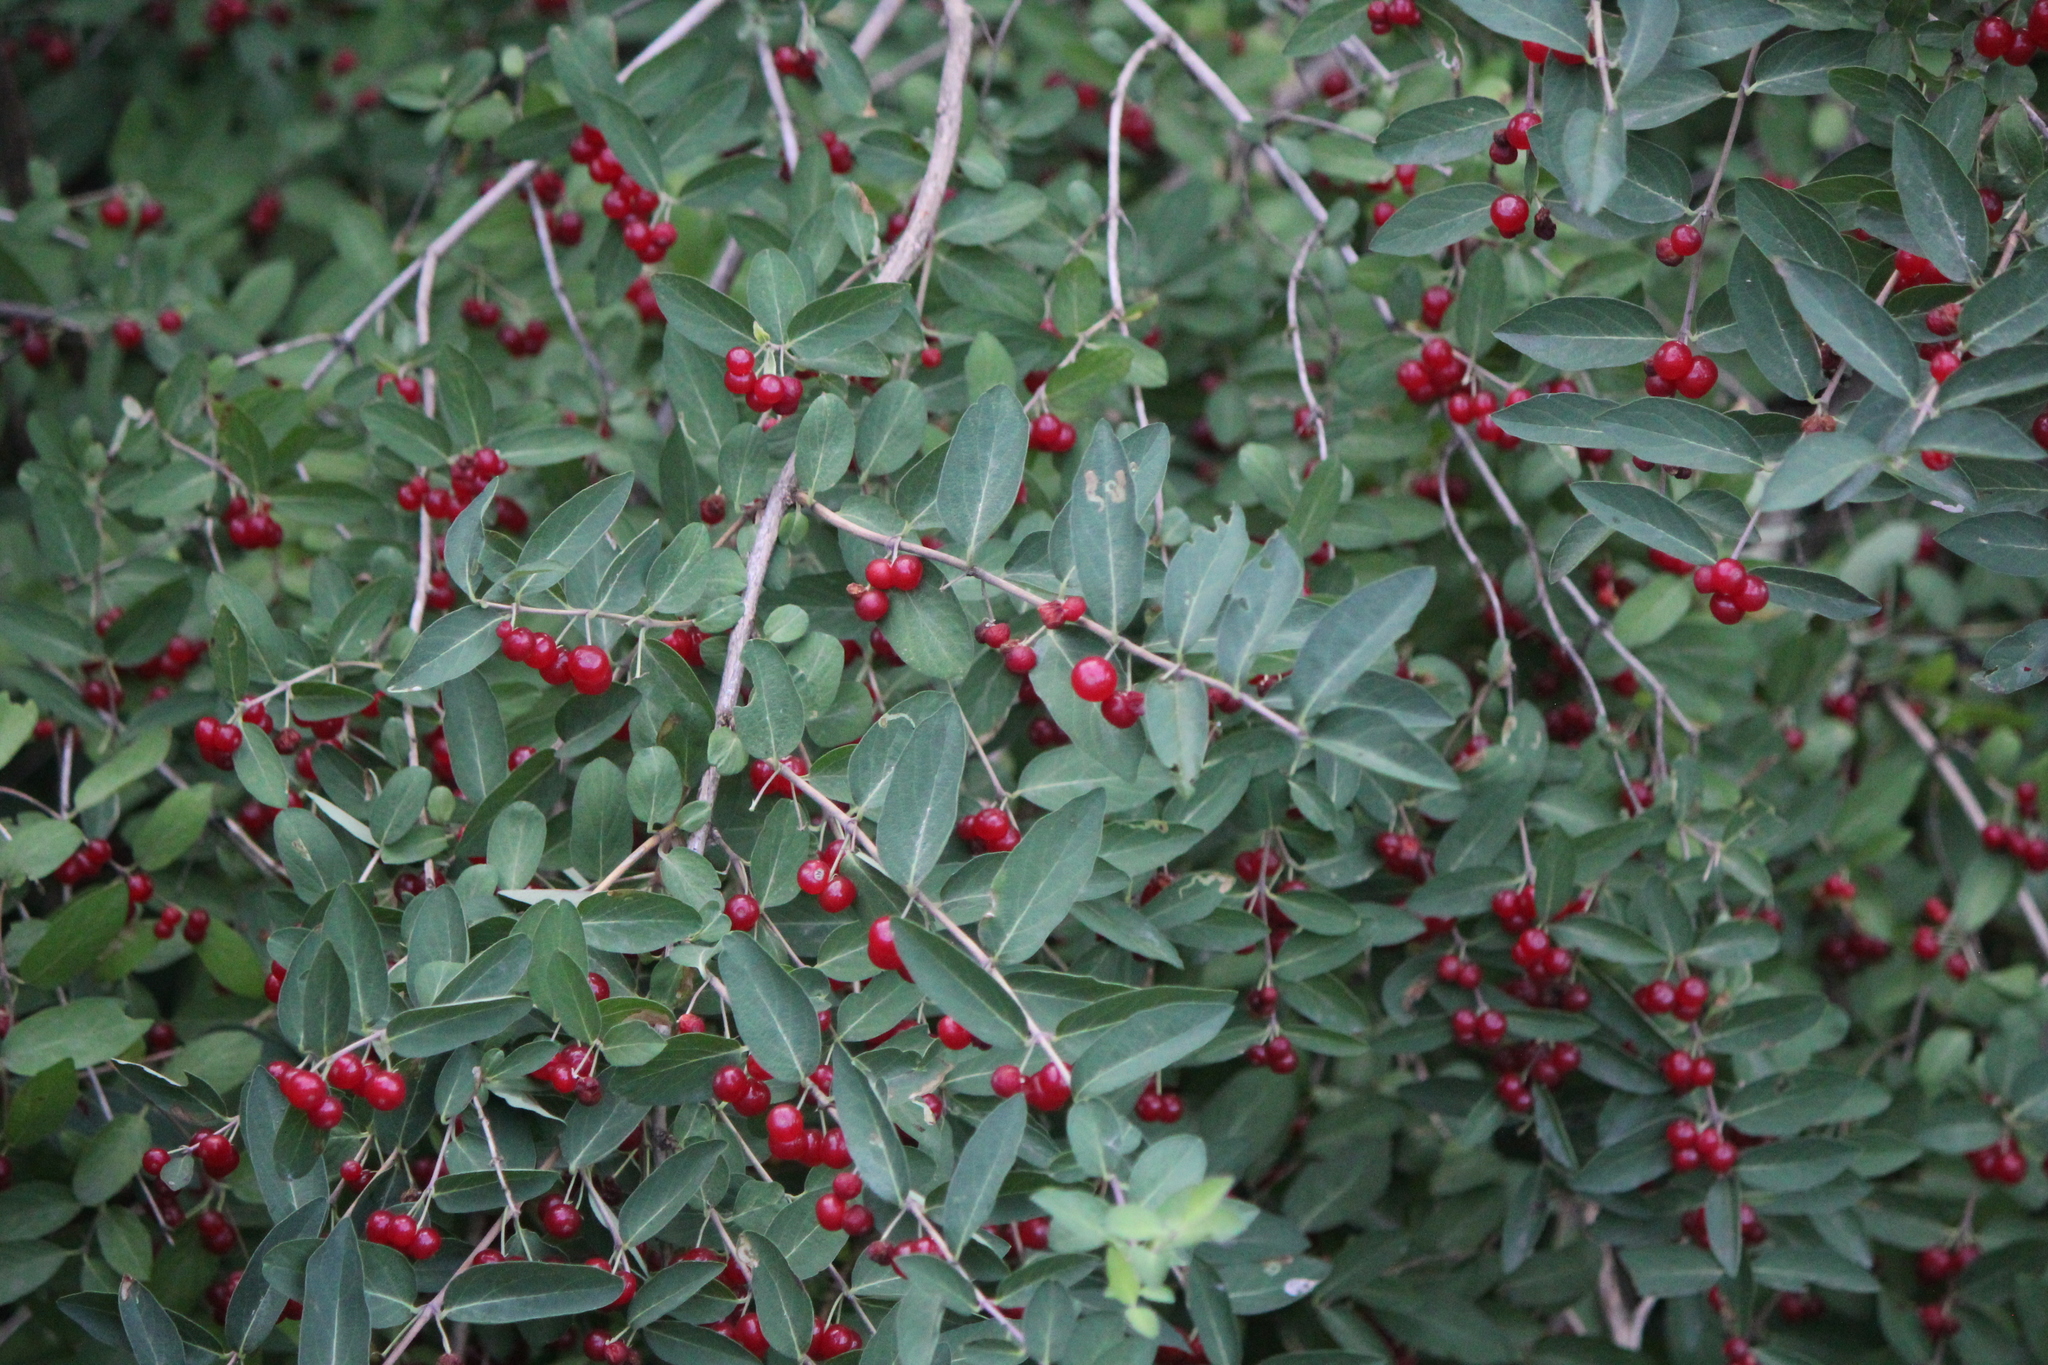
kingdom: Plantae
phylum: Tracheophyta
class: Magnoliopsida
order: Dipsacales
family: Caprifoliaceae
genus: Lonicera
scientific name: Lonicera morrowii
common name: Morrow's honeysuckle
